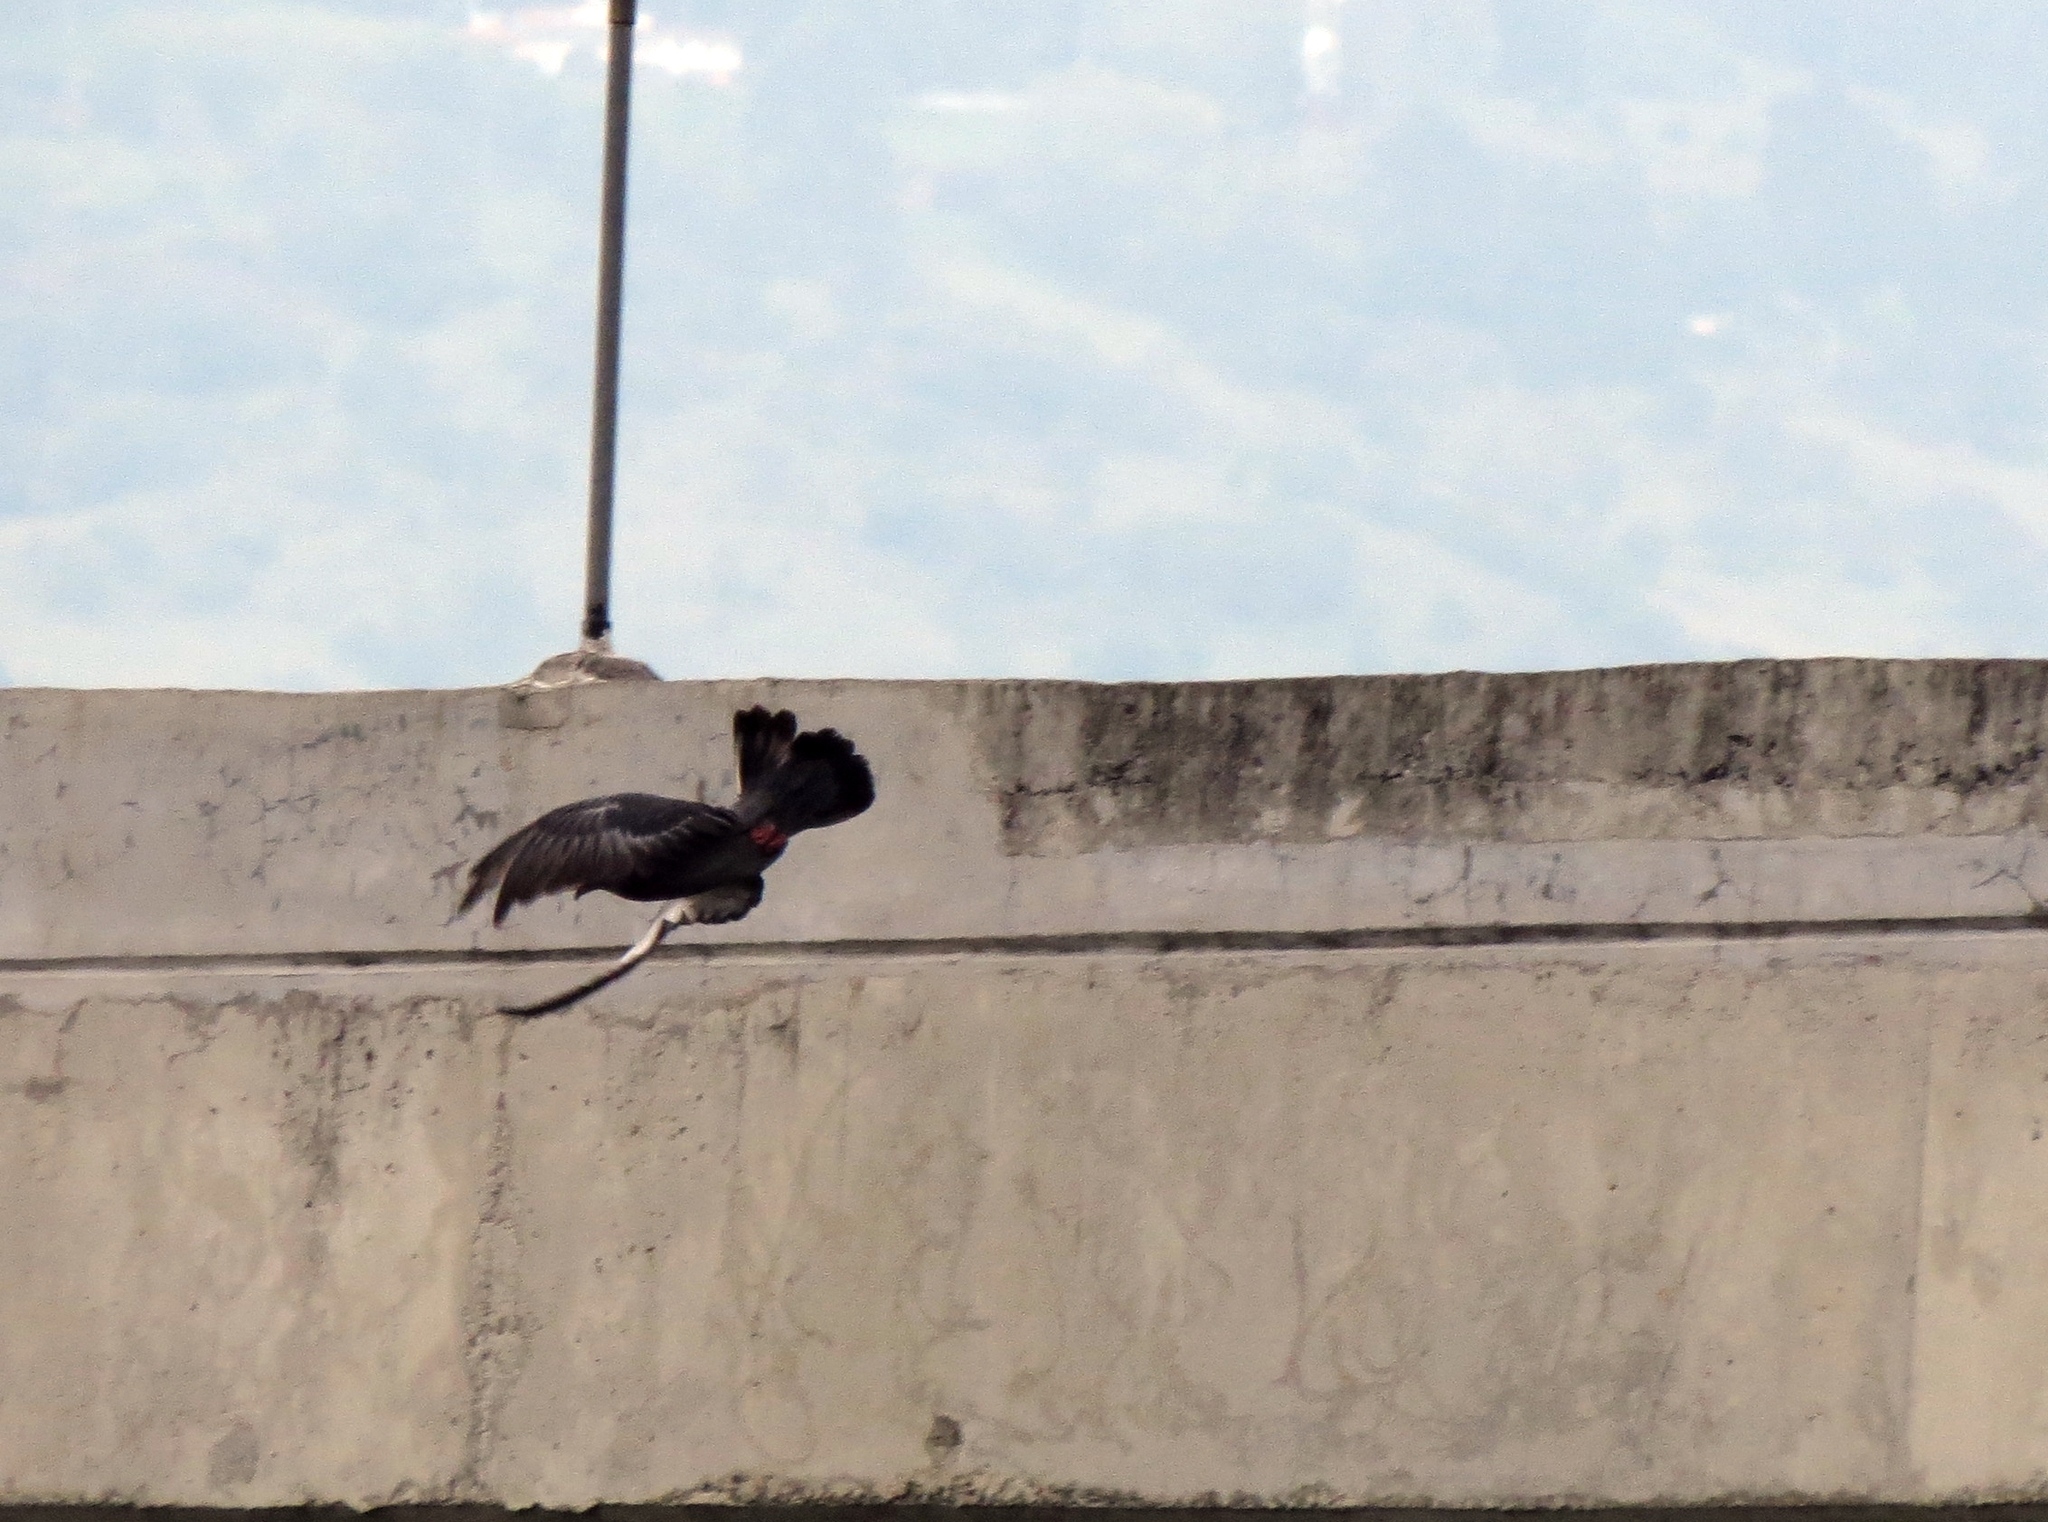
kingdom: Animalia
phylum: Chordata
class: Aves
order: Columbiformes
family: Columbidae
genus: Columba
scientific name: Columba livia
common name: Rock pigeon
